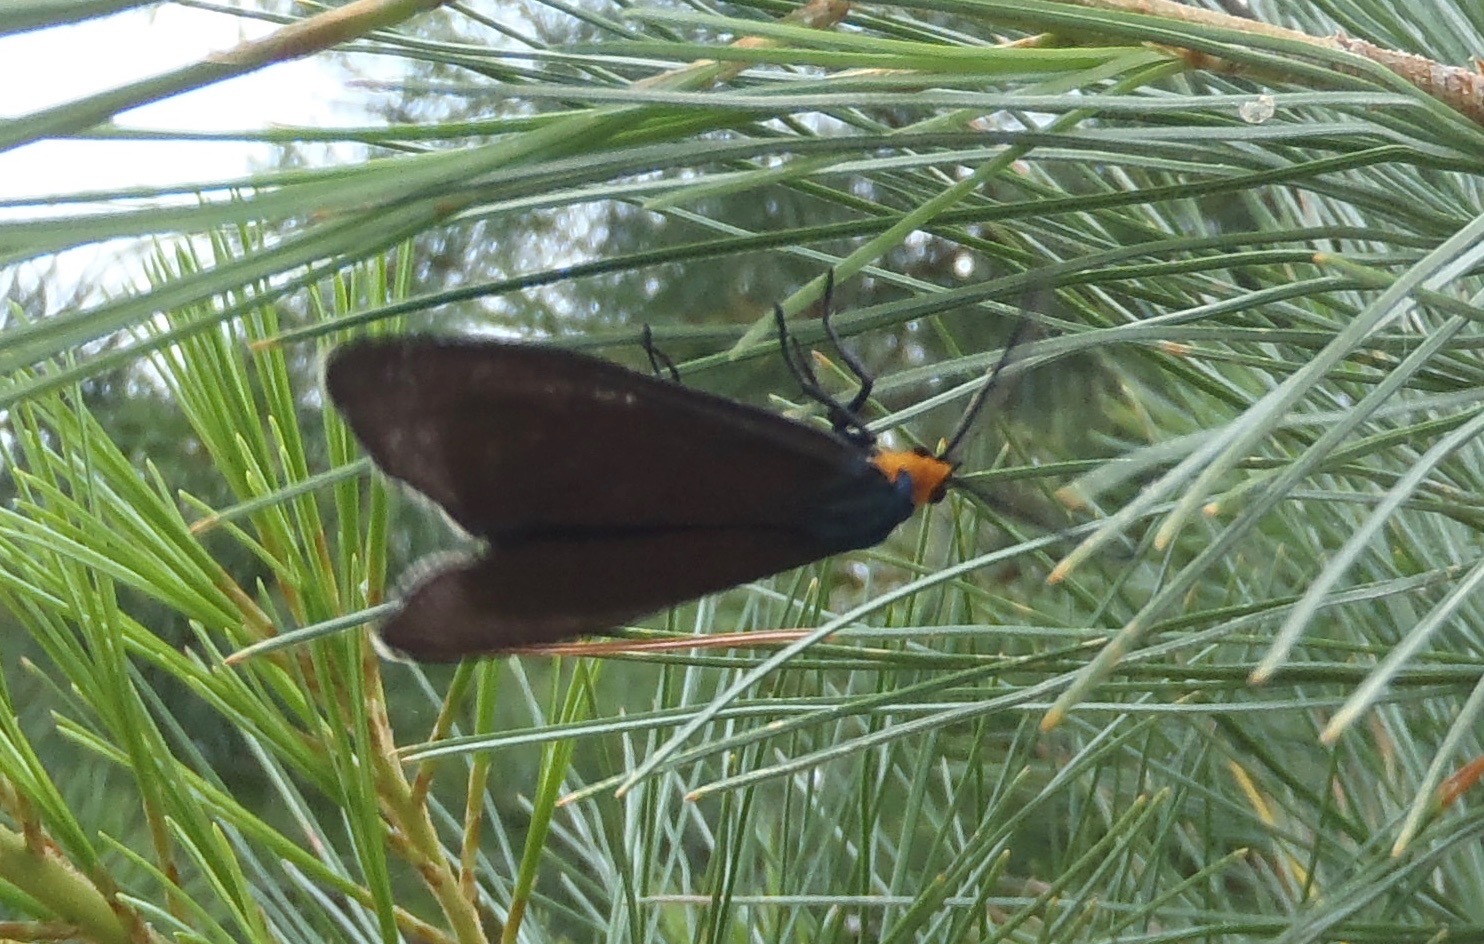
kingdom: Animalia
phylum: Arthropoda
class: Insecta
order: Lepidoptera
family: Erebidae
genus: Ctenucha
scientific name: Ctenucha virginica
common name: Virginia ctenucha moth
